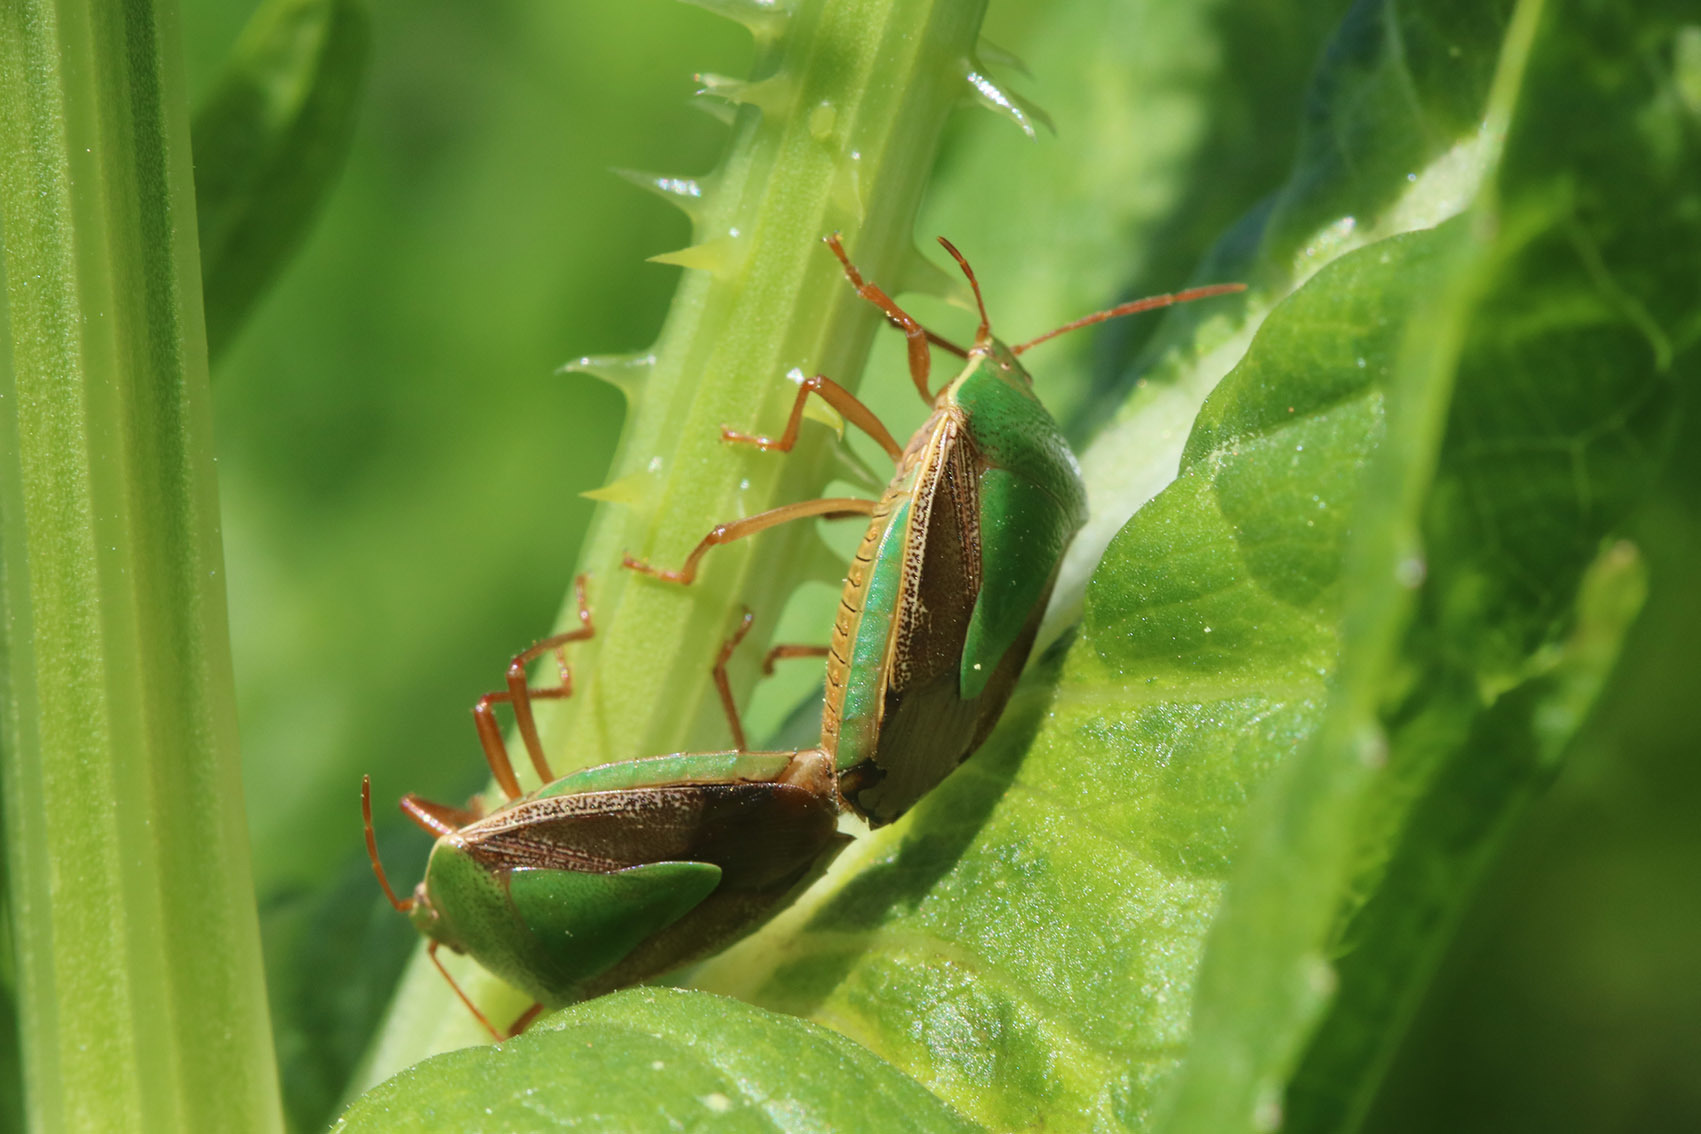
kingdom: Animalia
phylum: Arthropoda
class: Insecta
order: Hemiptera
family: Pentatomidae
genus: Edessa
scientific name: Edessa meditabunda
